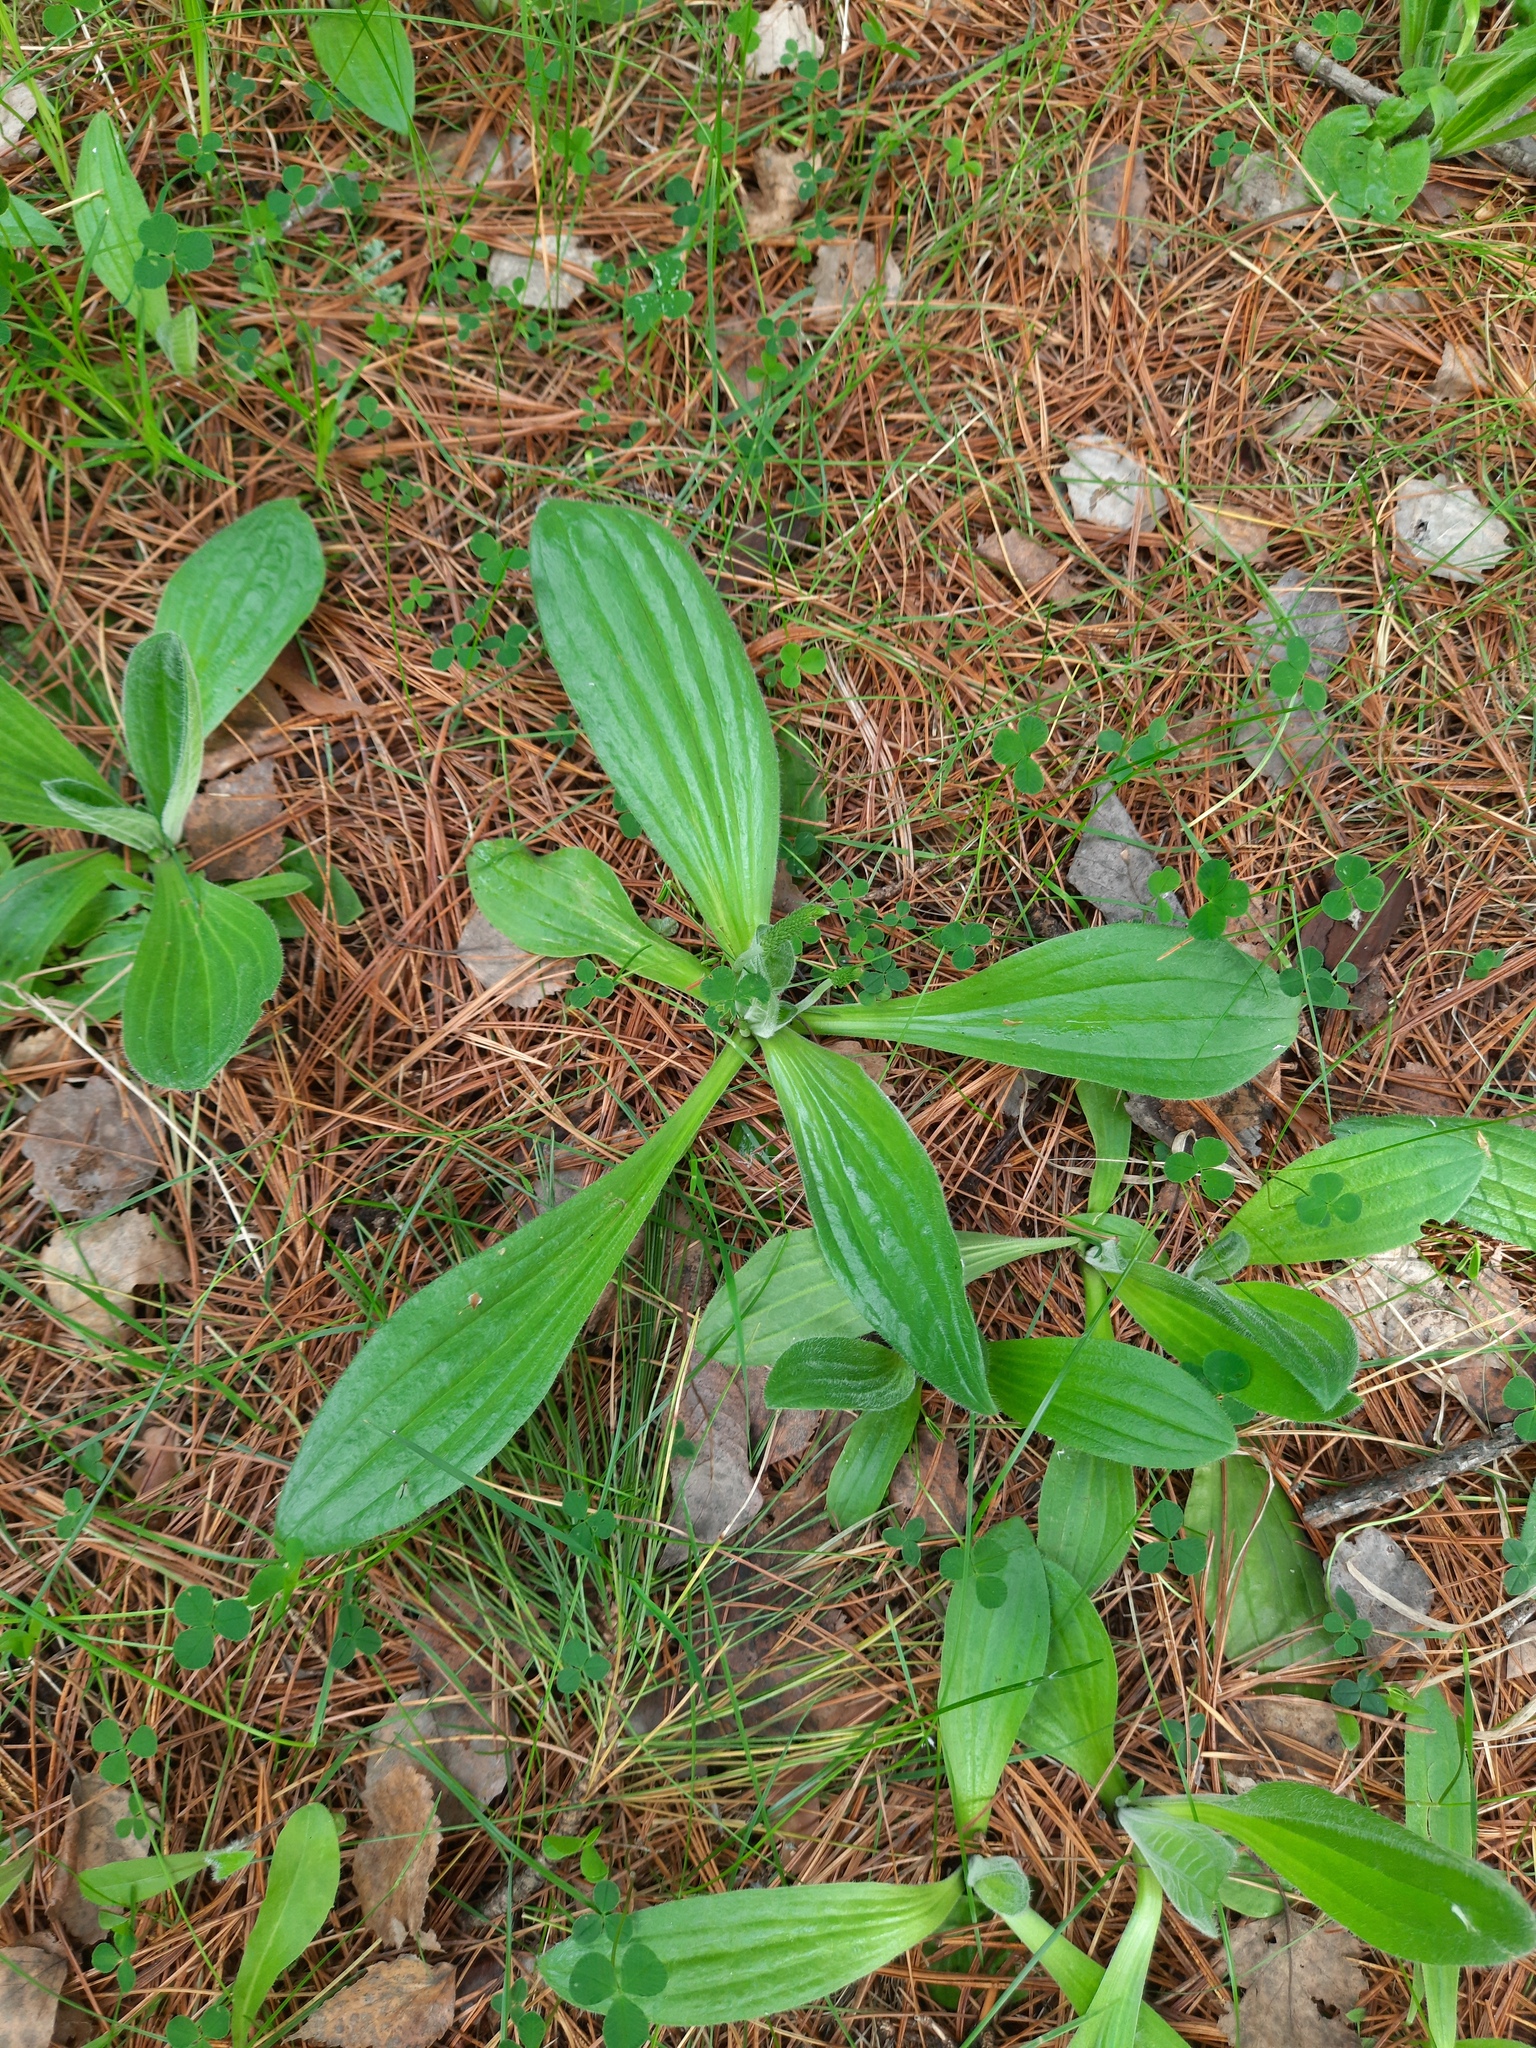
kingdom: Plantae
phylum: Tracheophyta
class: Magnoliopsida
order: Lamiales
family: Plantaginaceae
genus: Plantago
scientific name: Plantago urvillei
